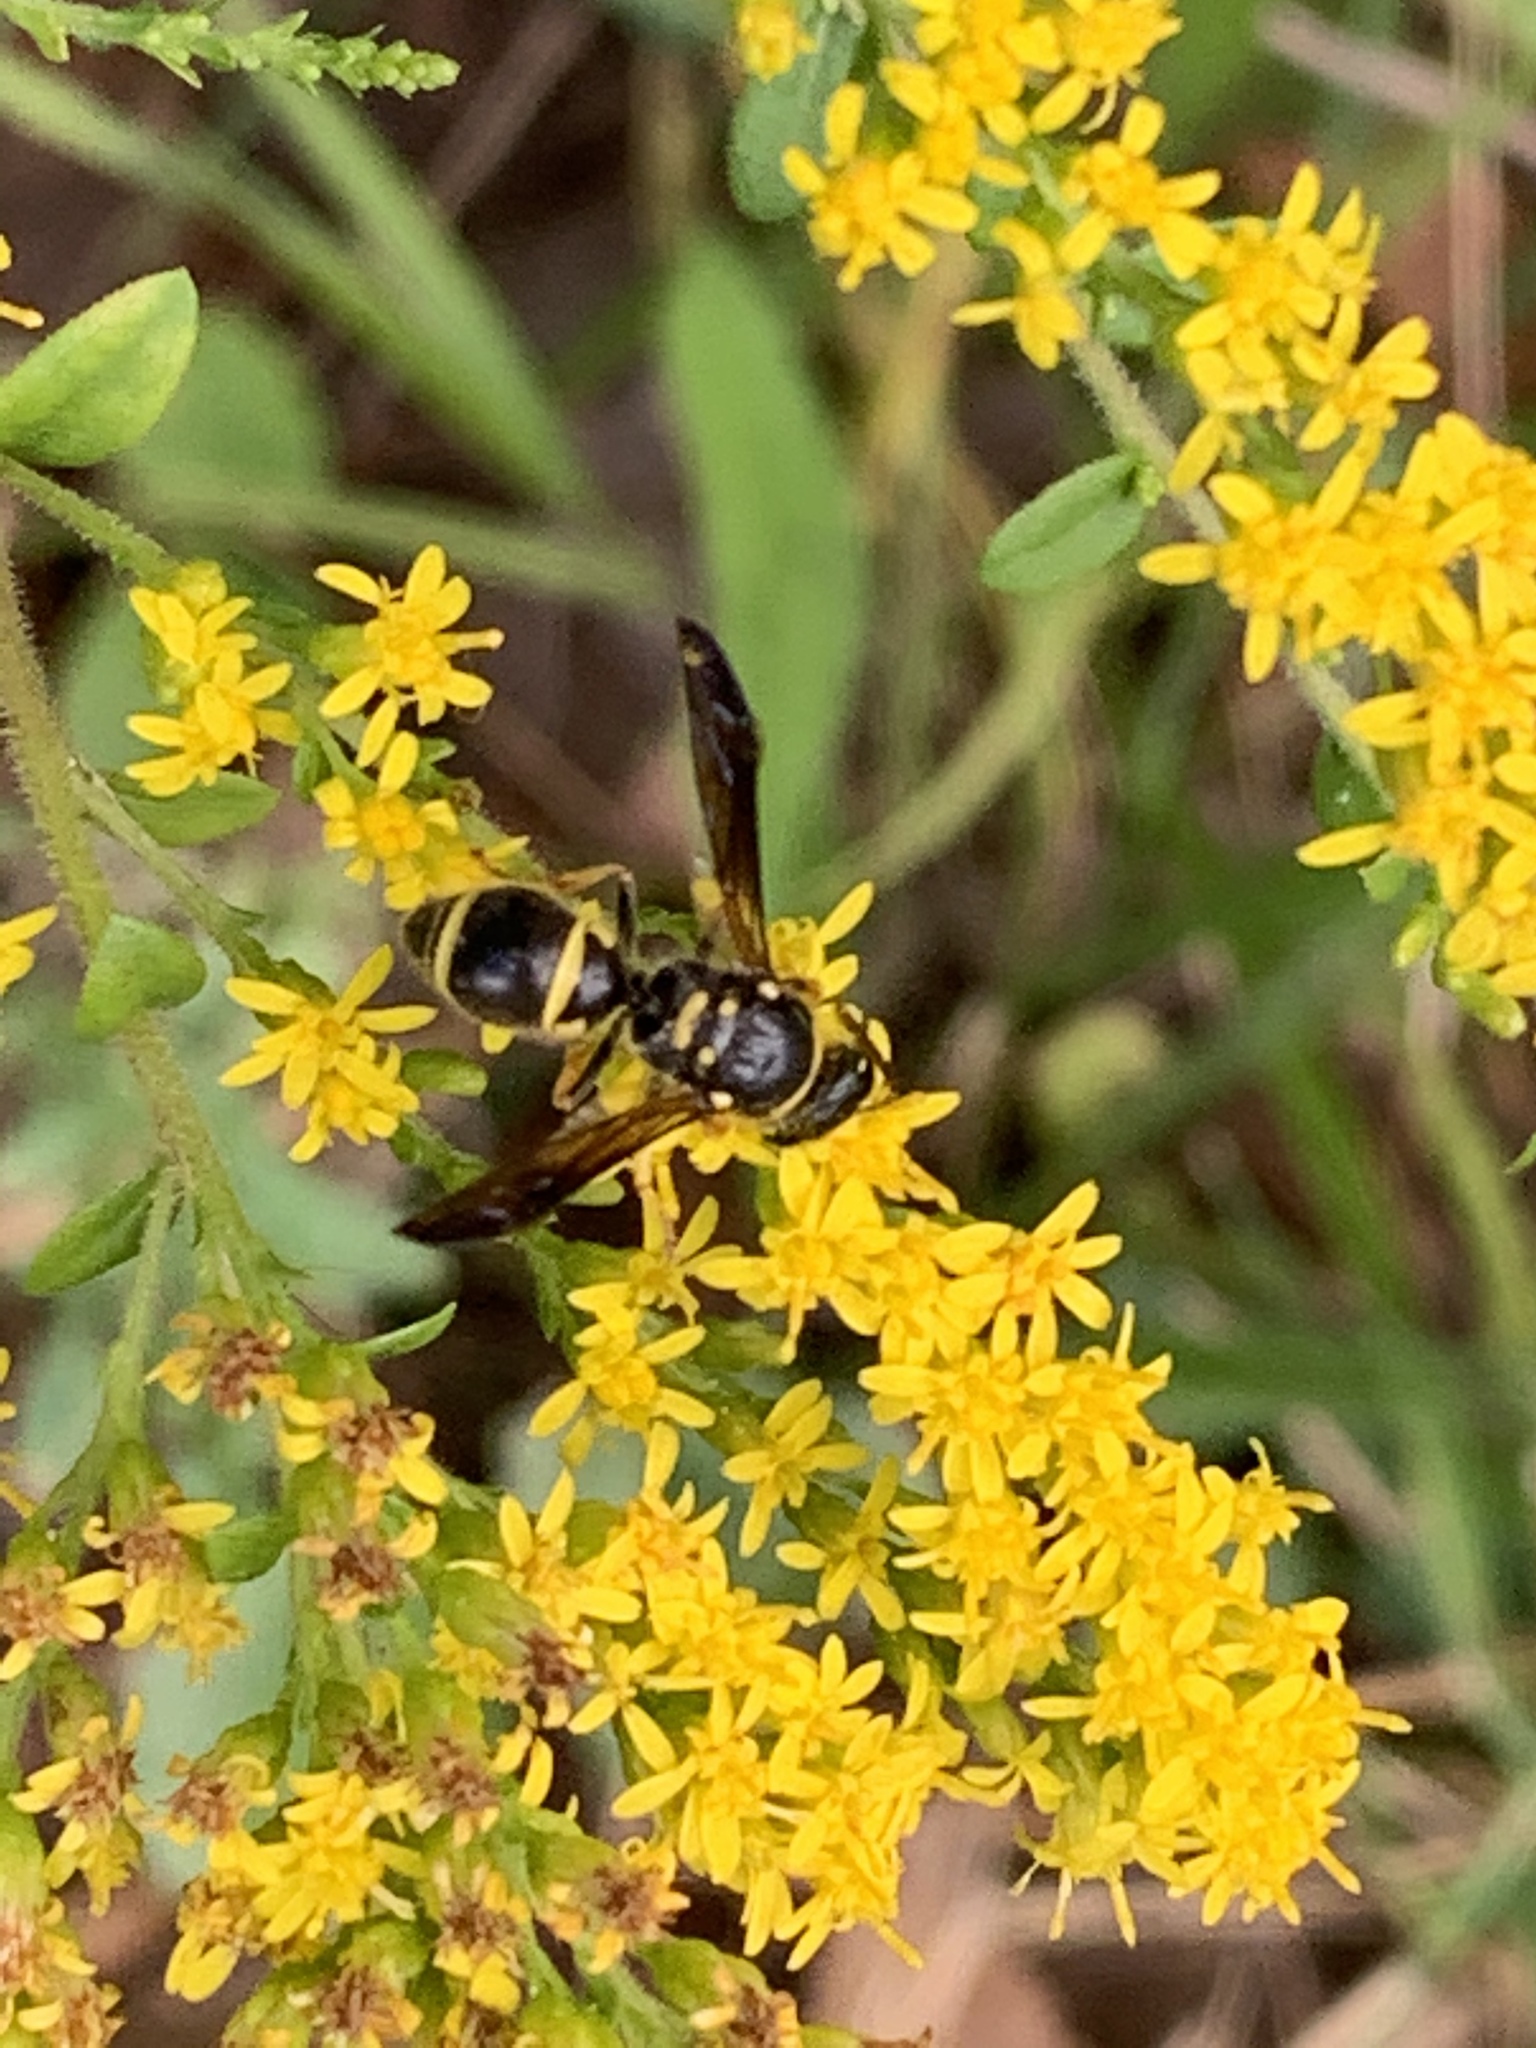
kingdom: Animalia
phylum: Arthropoda
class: Insecta
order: Hymenoptera
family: Vespidae
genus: Ancistrocerus
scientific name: Ancistrocerus campestris
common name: Smiling mason wasp
